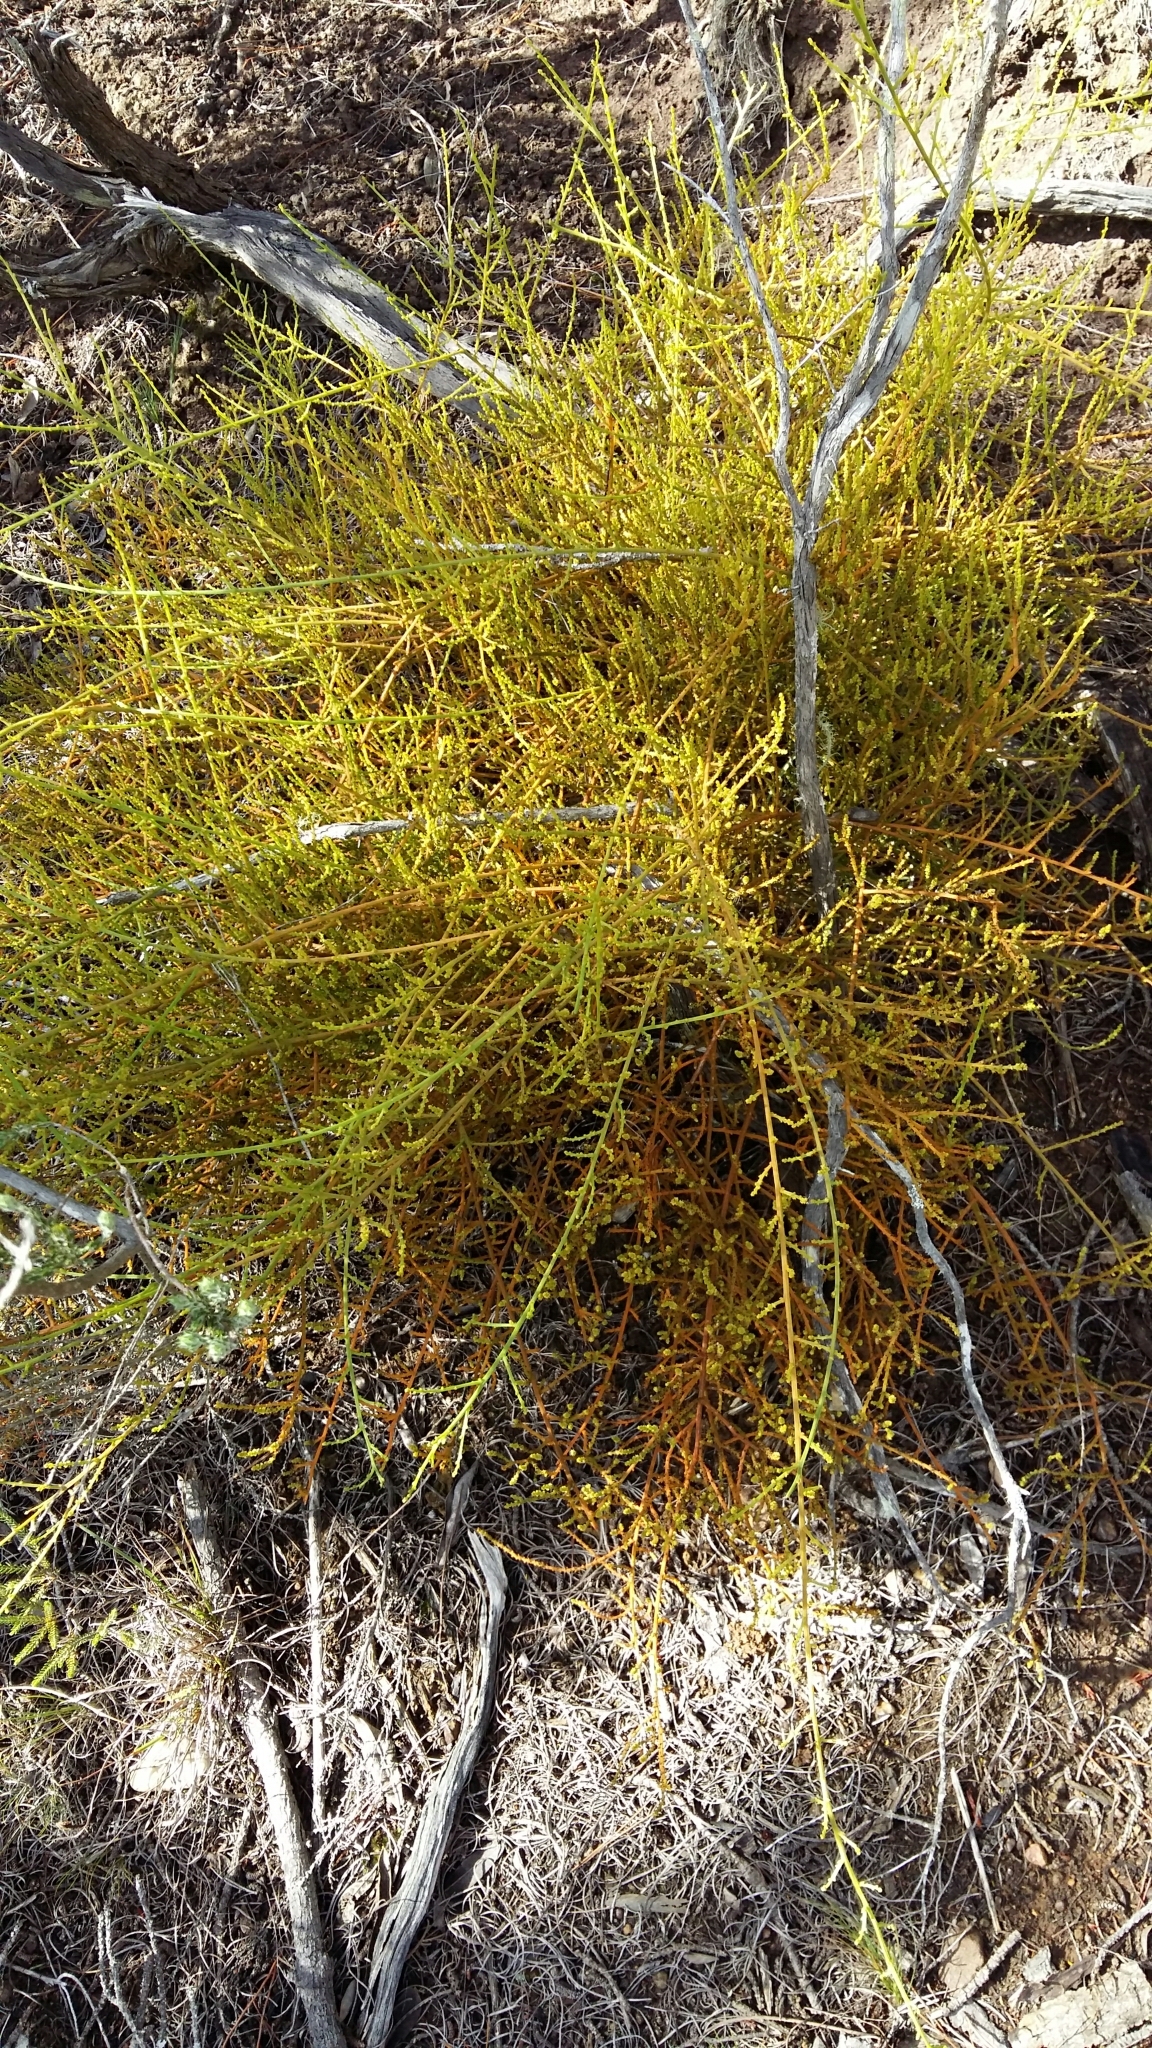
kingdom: Plantae
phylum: Tracheophyta
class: Magnoliopsida
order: Santalales
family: Thesiaceae
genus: Thesium
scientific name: Thesium fragile
